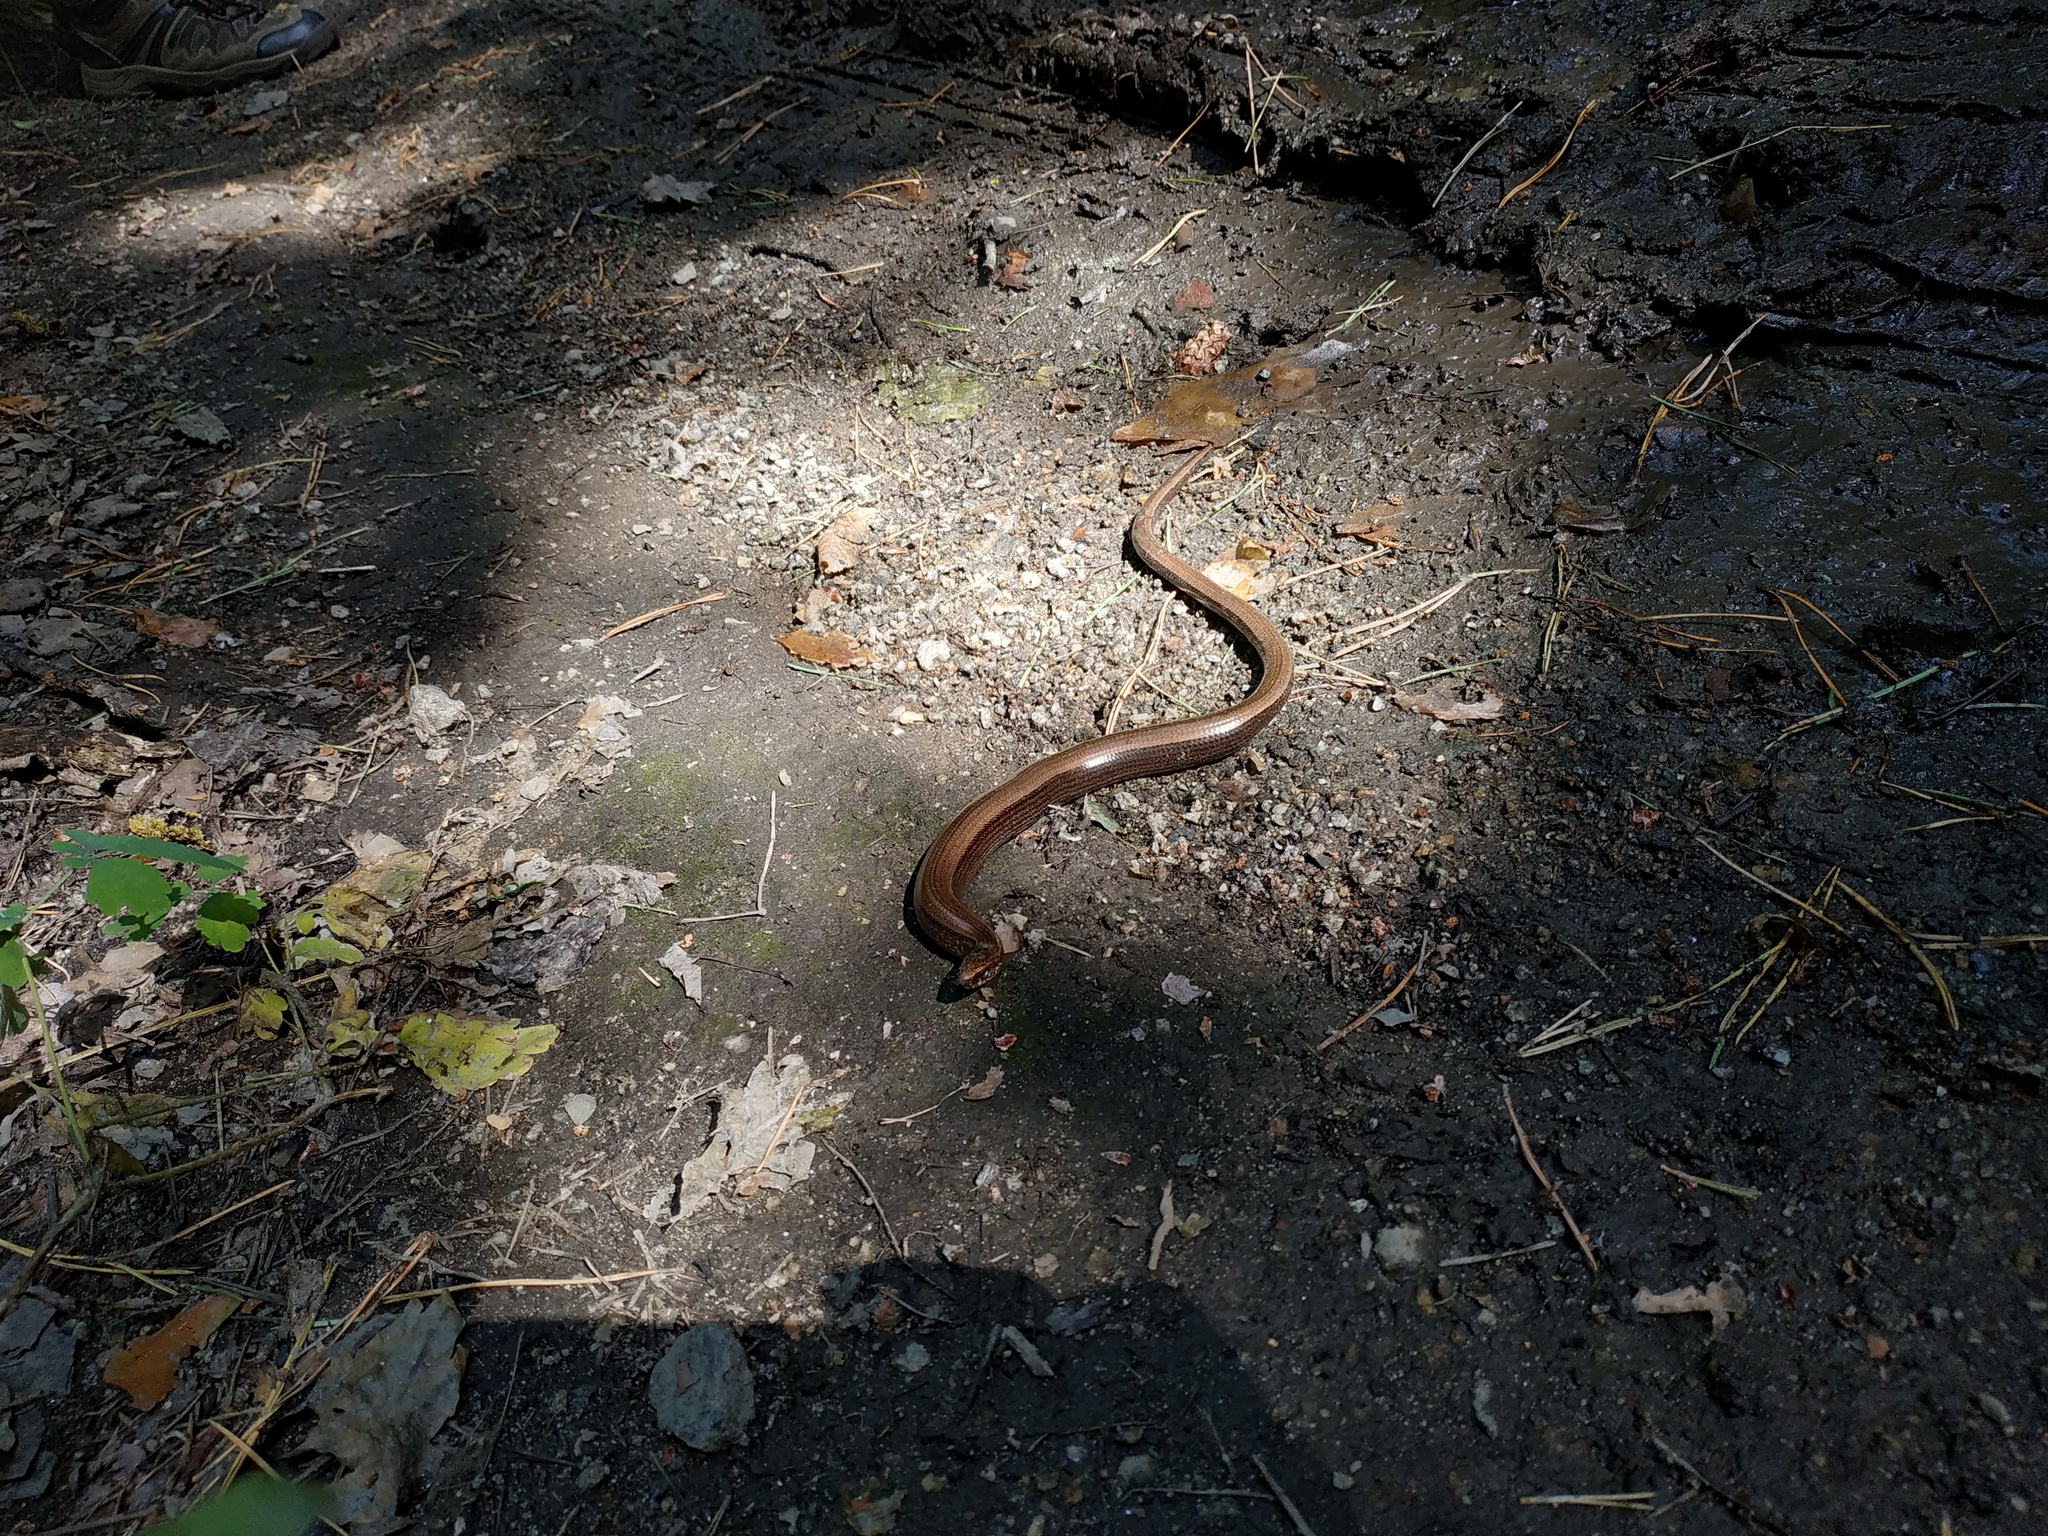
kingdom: Animalia
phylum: Chordata
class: Squamata
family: Anguidae
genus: Anguis
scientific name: Anguis colchica
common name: Slow worm
